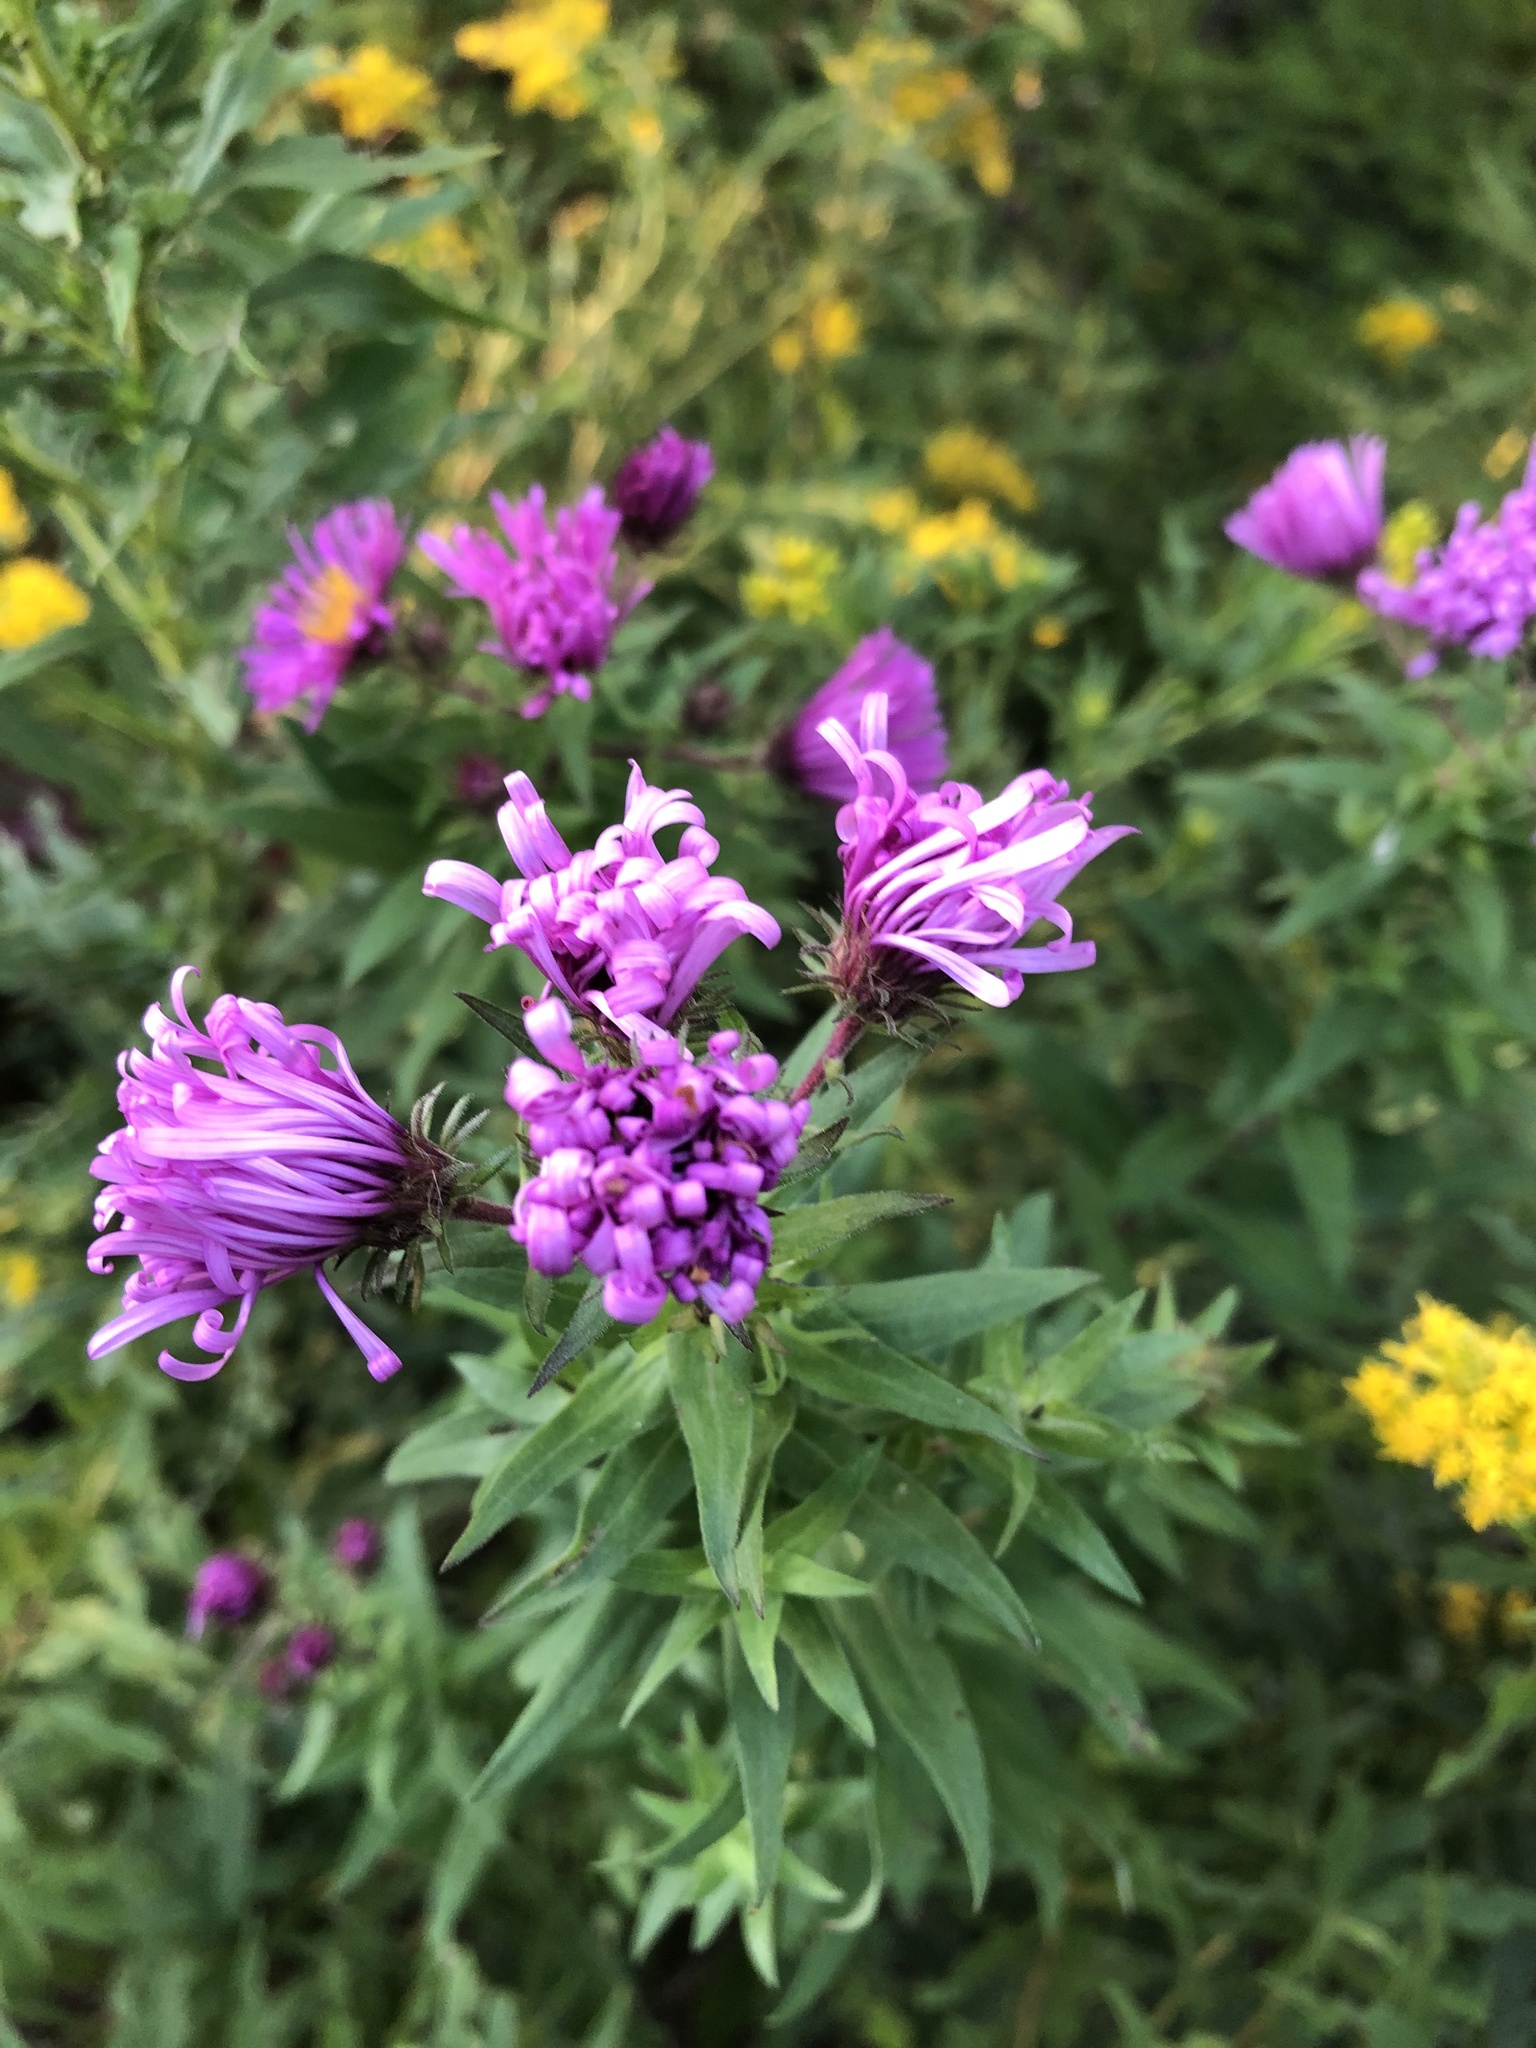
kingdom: Plantae
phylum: Tracheophyta
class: Magnoliopsida
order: Asterales
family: Asteraceae
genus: Symphyotrichum
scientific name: Symphyotrichum novae-angliae
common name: Michaelmas daisy
